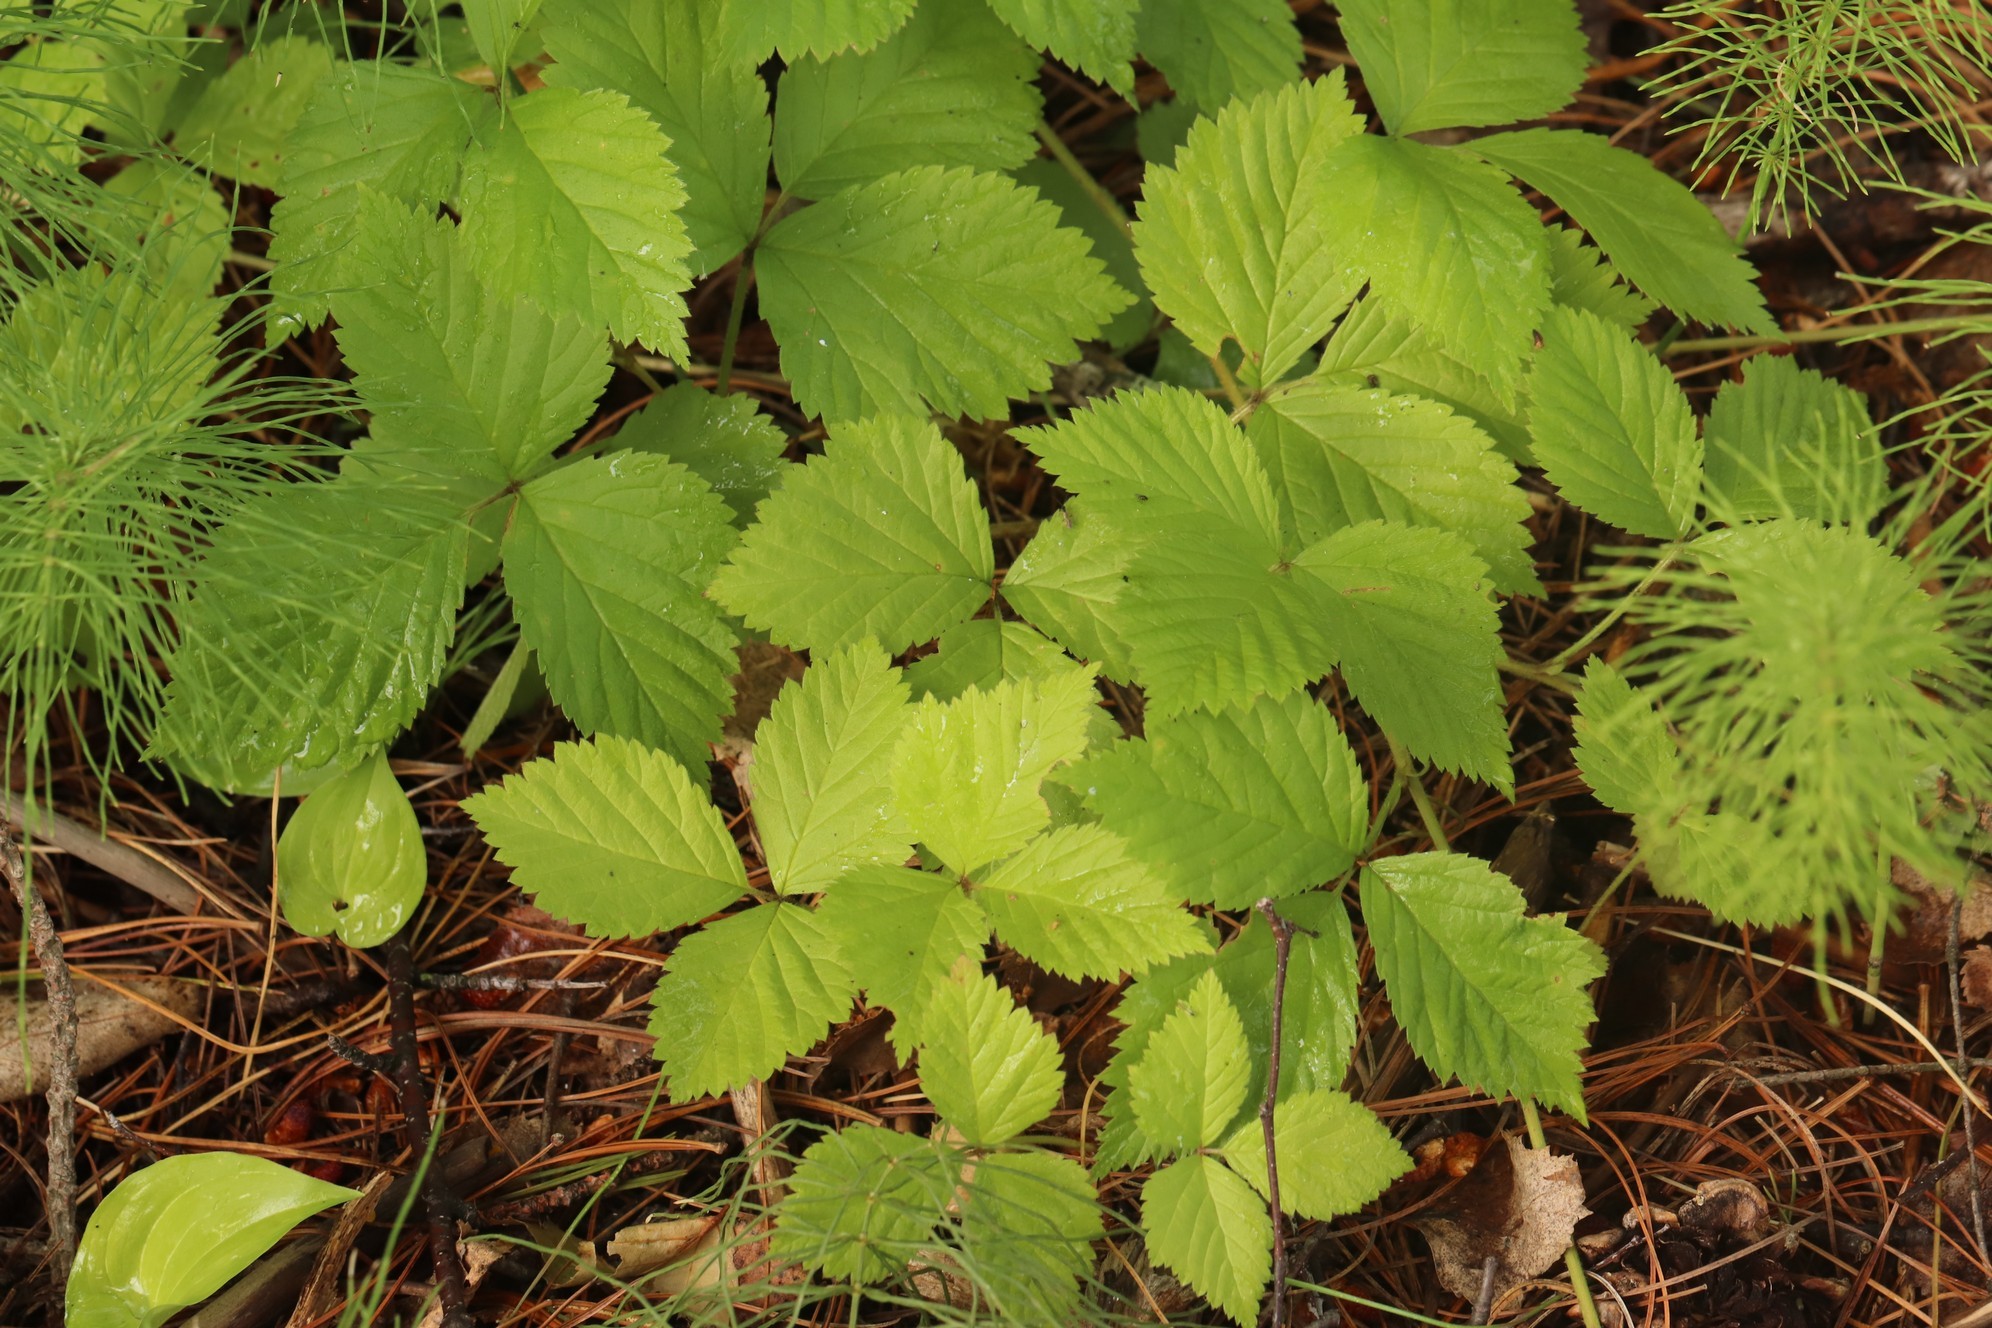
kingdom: Plantae
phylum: Tracheophyta
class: Magnoliopsida
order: Rosales
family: Rosaceae
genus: Rubus
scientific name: Rubus saxatilis
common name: Stone bramble
